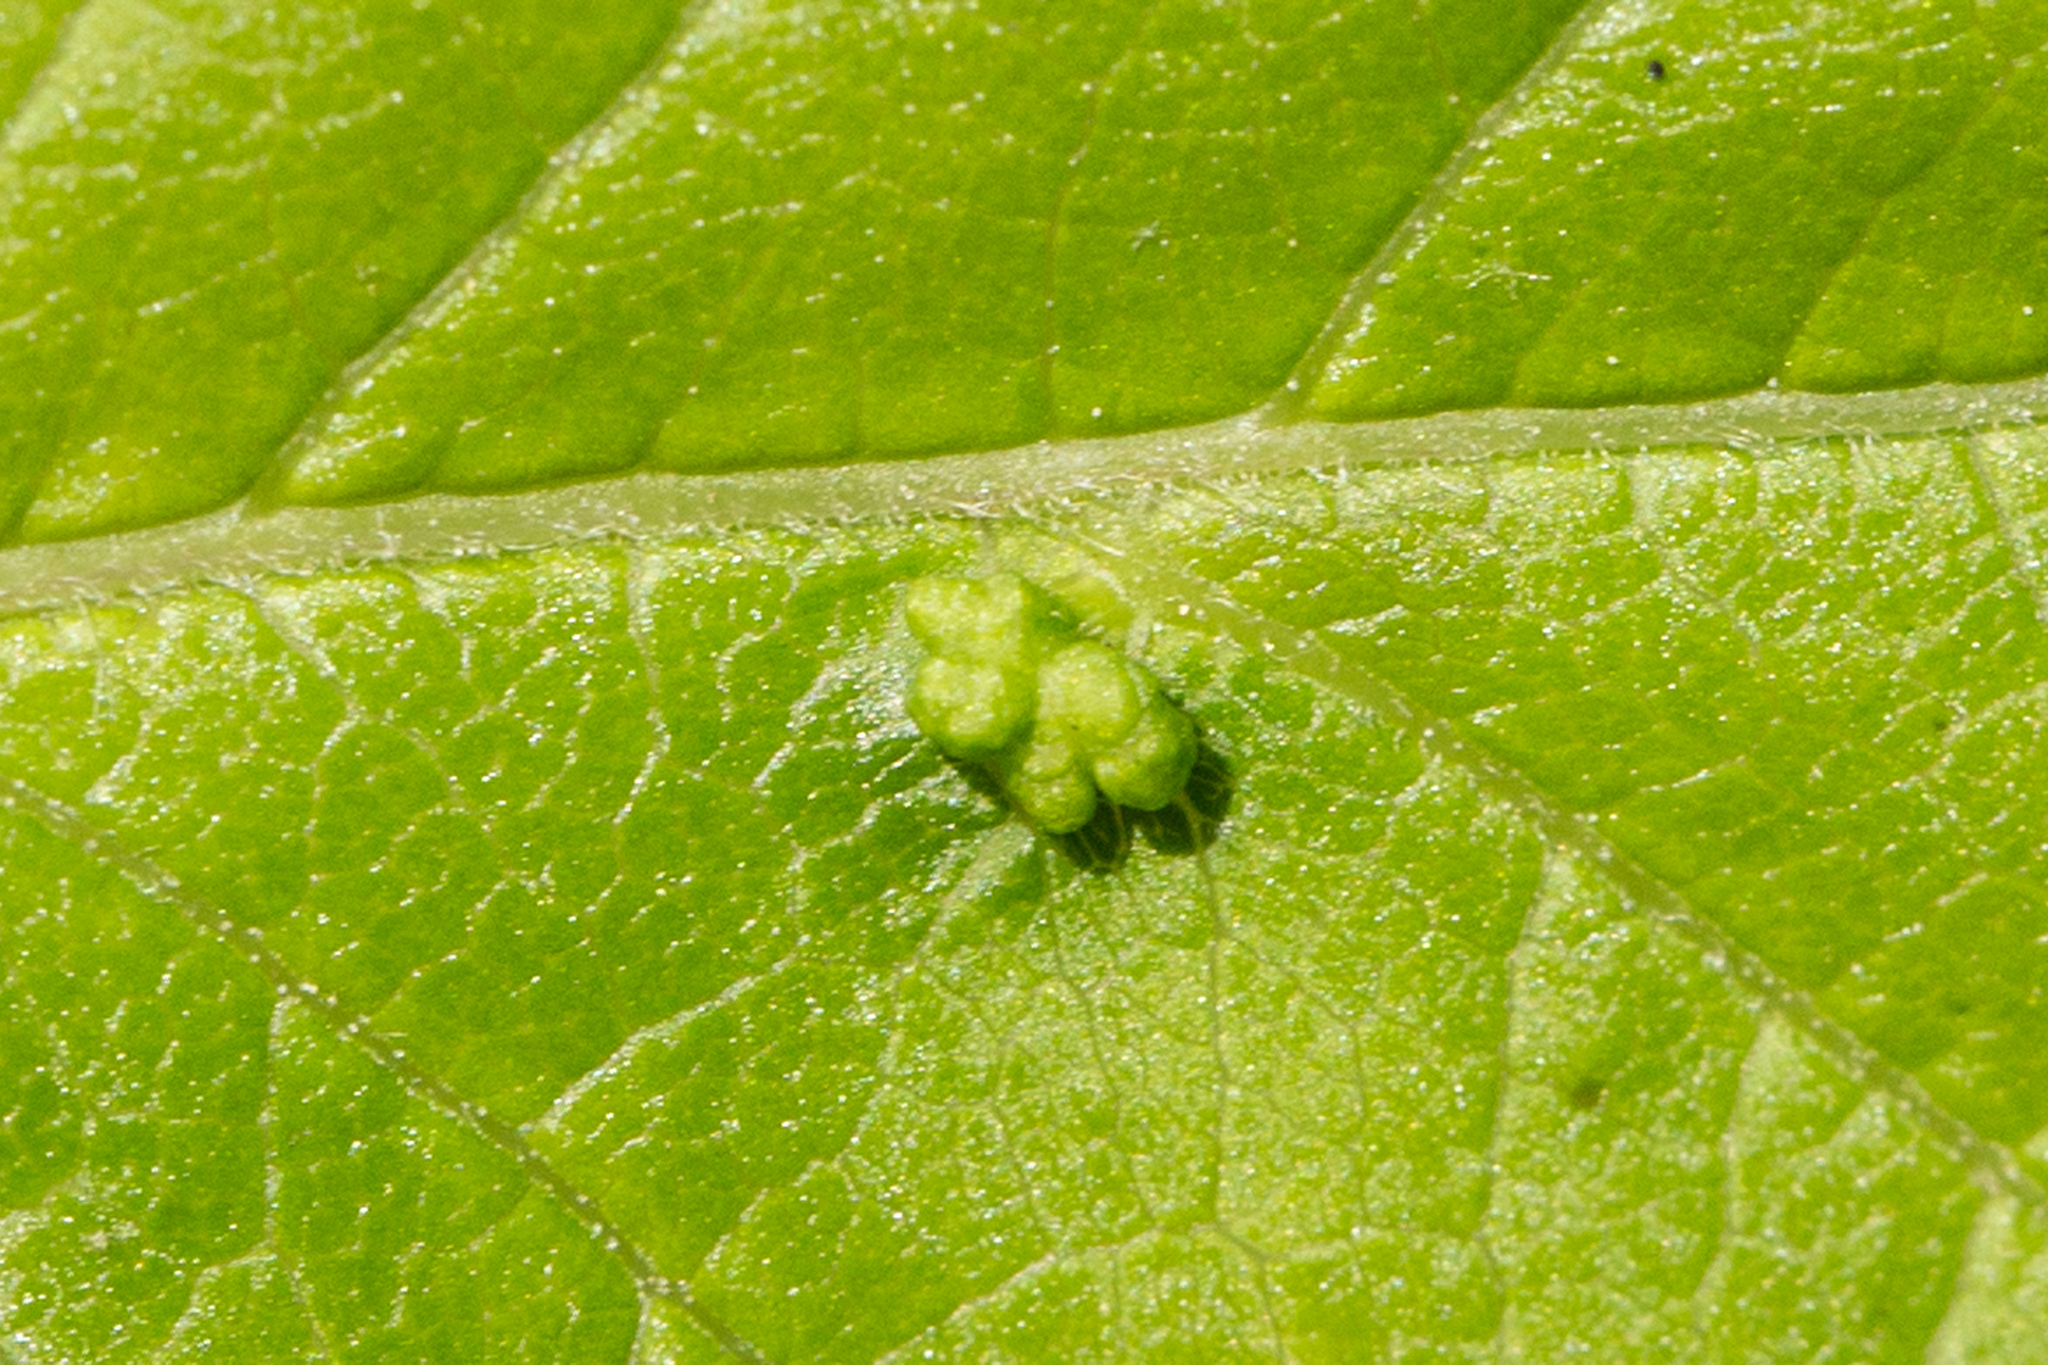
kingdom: Animalia
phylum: Arthropoda
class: Arachnida
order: Trombidiformes
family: Eriophyidae
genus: Aceria
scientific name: Aceria
